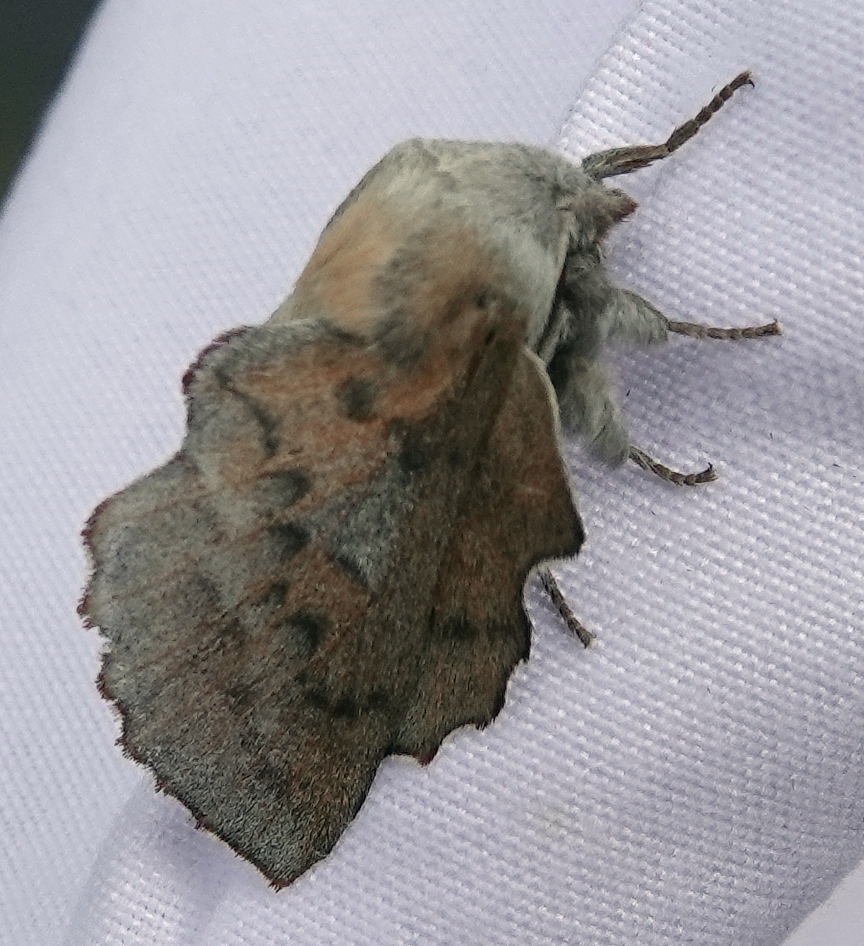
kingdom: Animalia
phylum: Arthropoda
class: Insecta
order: Lepidoptera
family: Lasiocampidae
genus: Phyllodesma
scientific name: Phyllodesma americana
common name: American lappet moth
